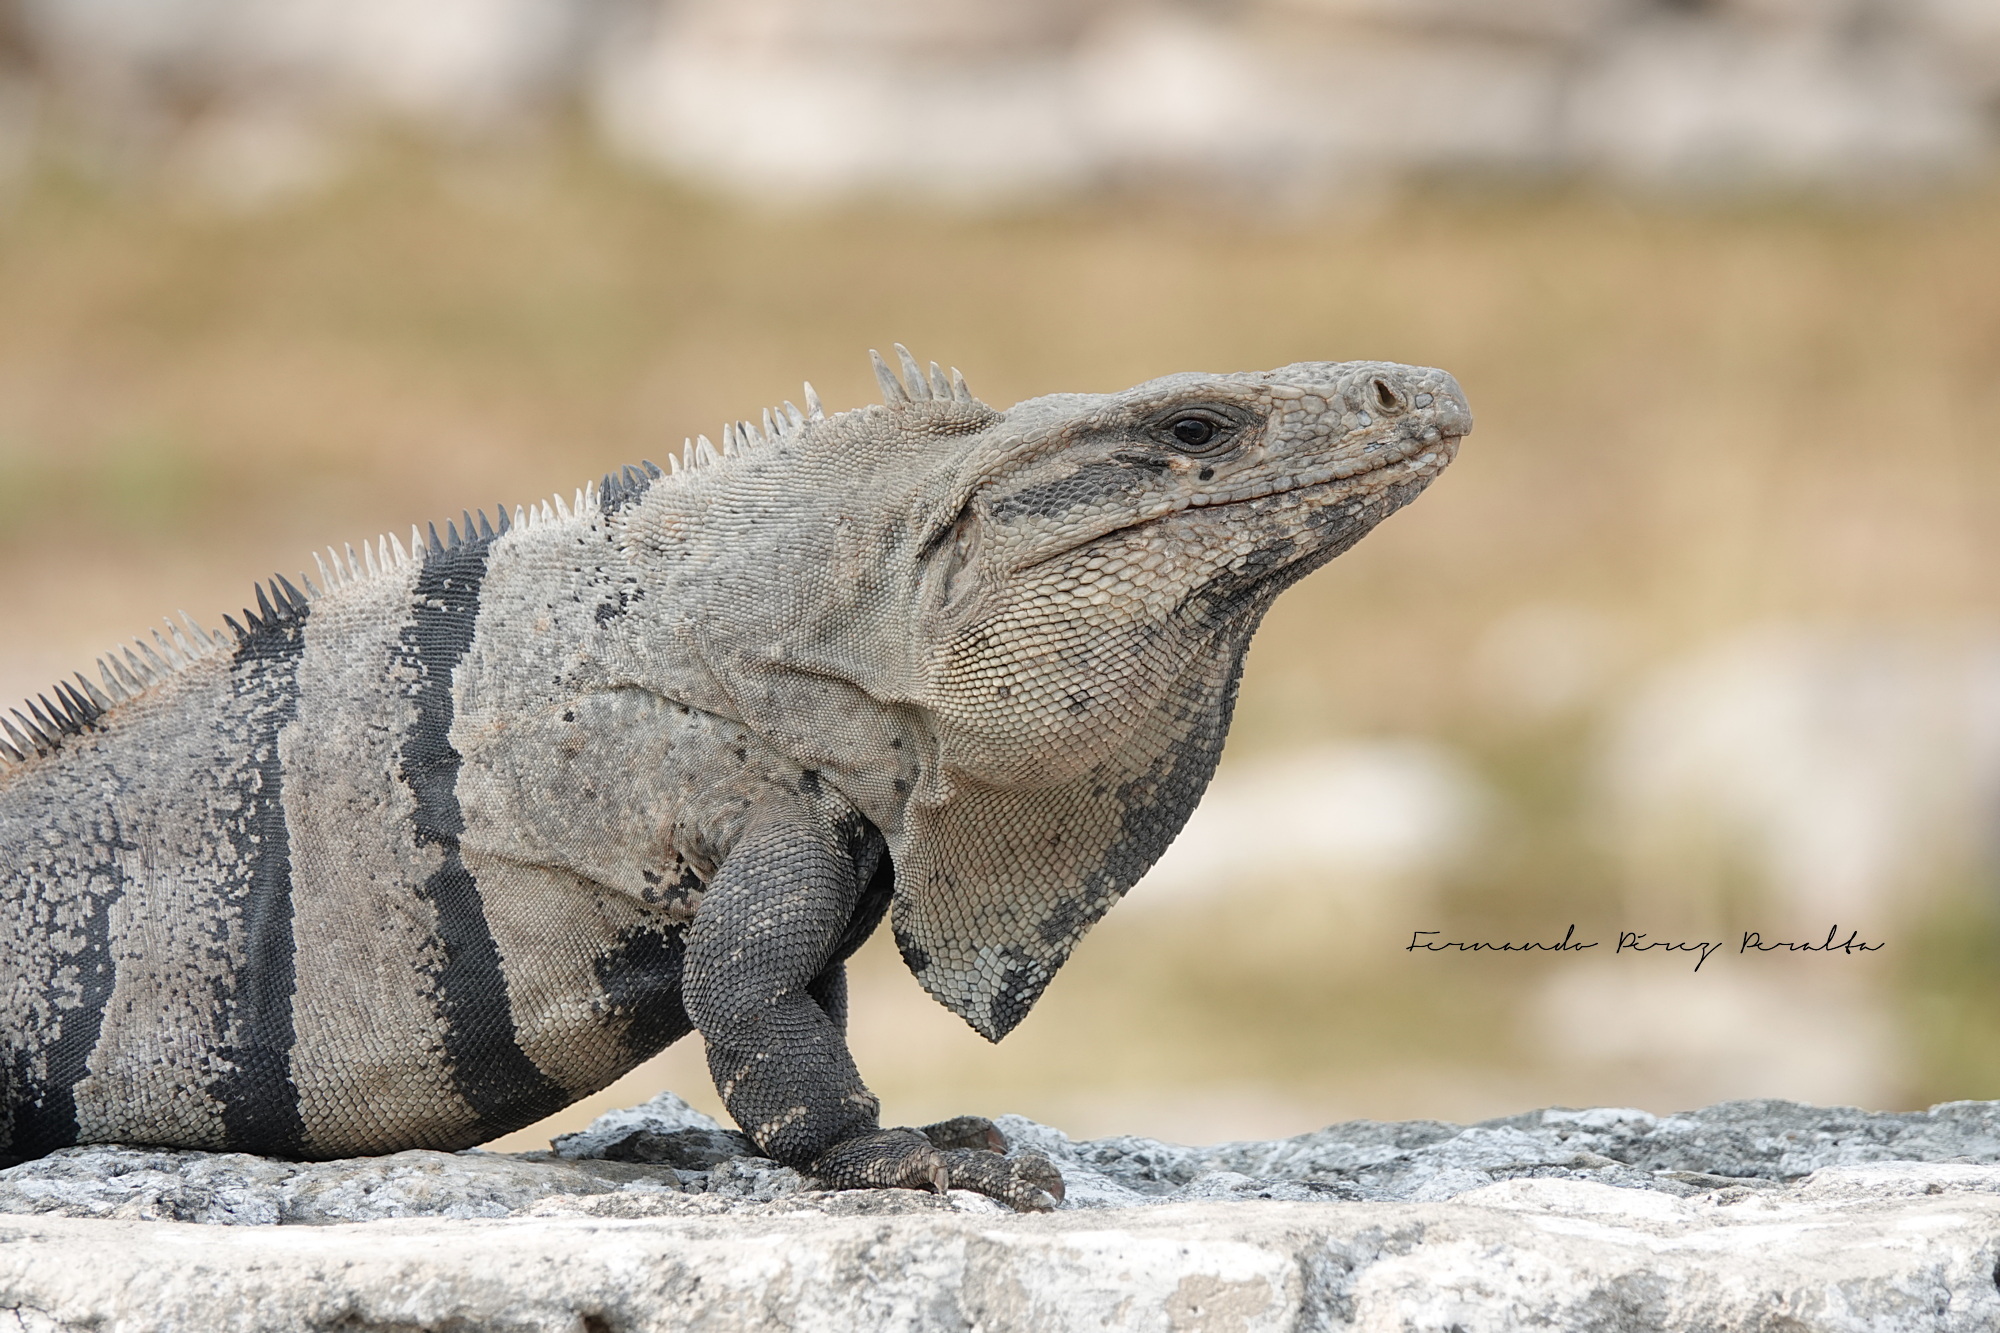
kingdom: Animalia
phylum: Chordata
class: Squamata
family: Iguanidae
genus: Ctenosaura
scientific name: Ctenosaura similis
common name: Black spiny-tailed iguana
